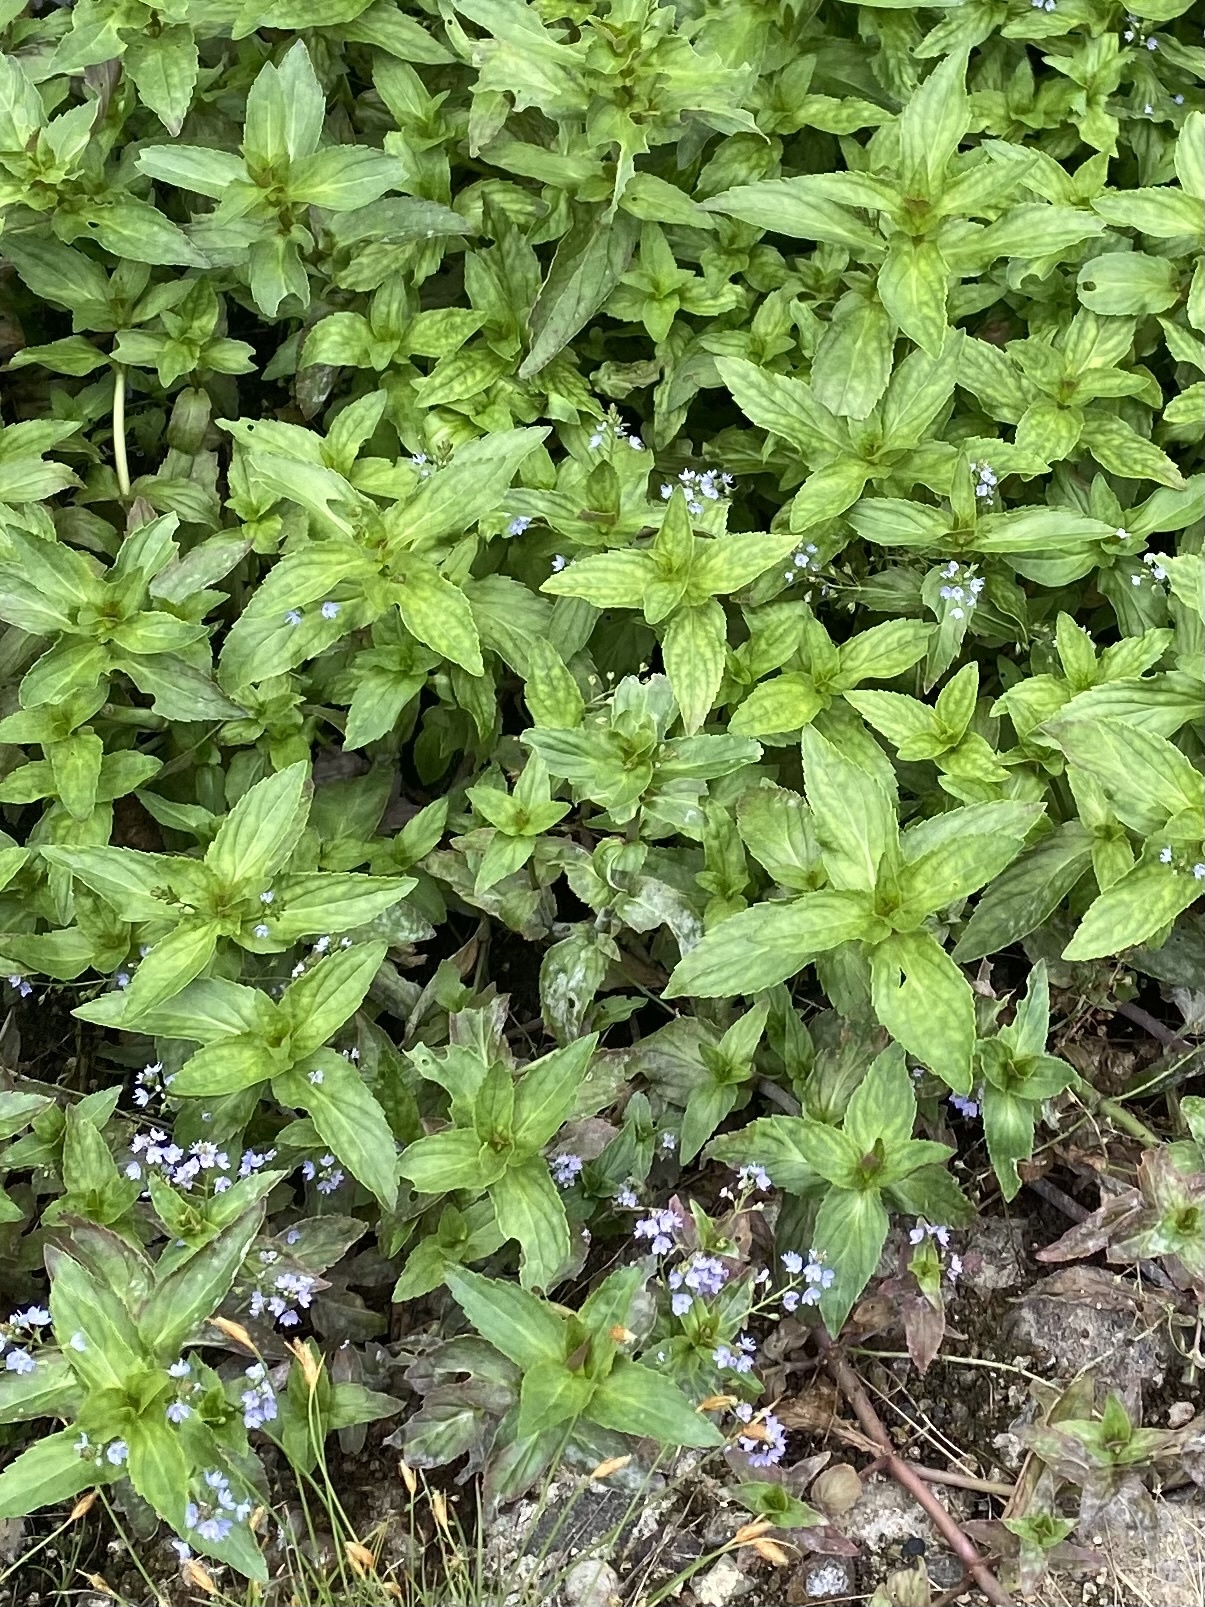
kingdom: Plantae
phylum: Tracheophyta
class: Magnoliopsida
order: Lamiales
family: Plantaginaceae
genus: Veronica
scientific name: Veronica americana
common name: American brooklime
